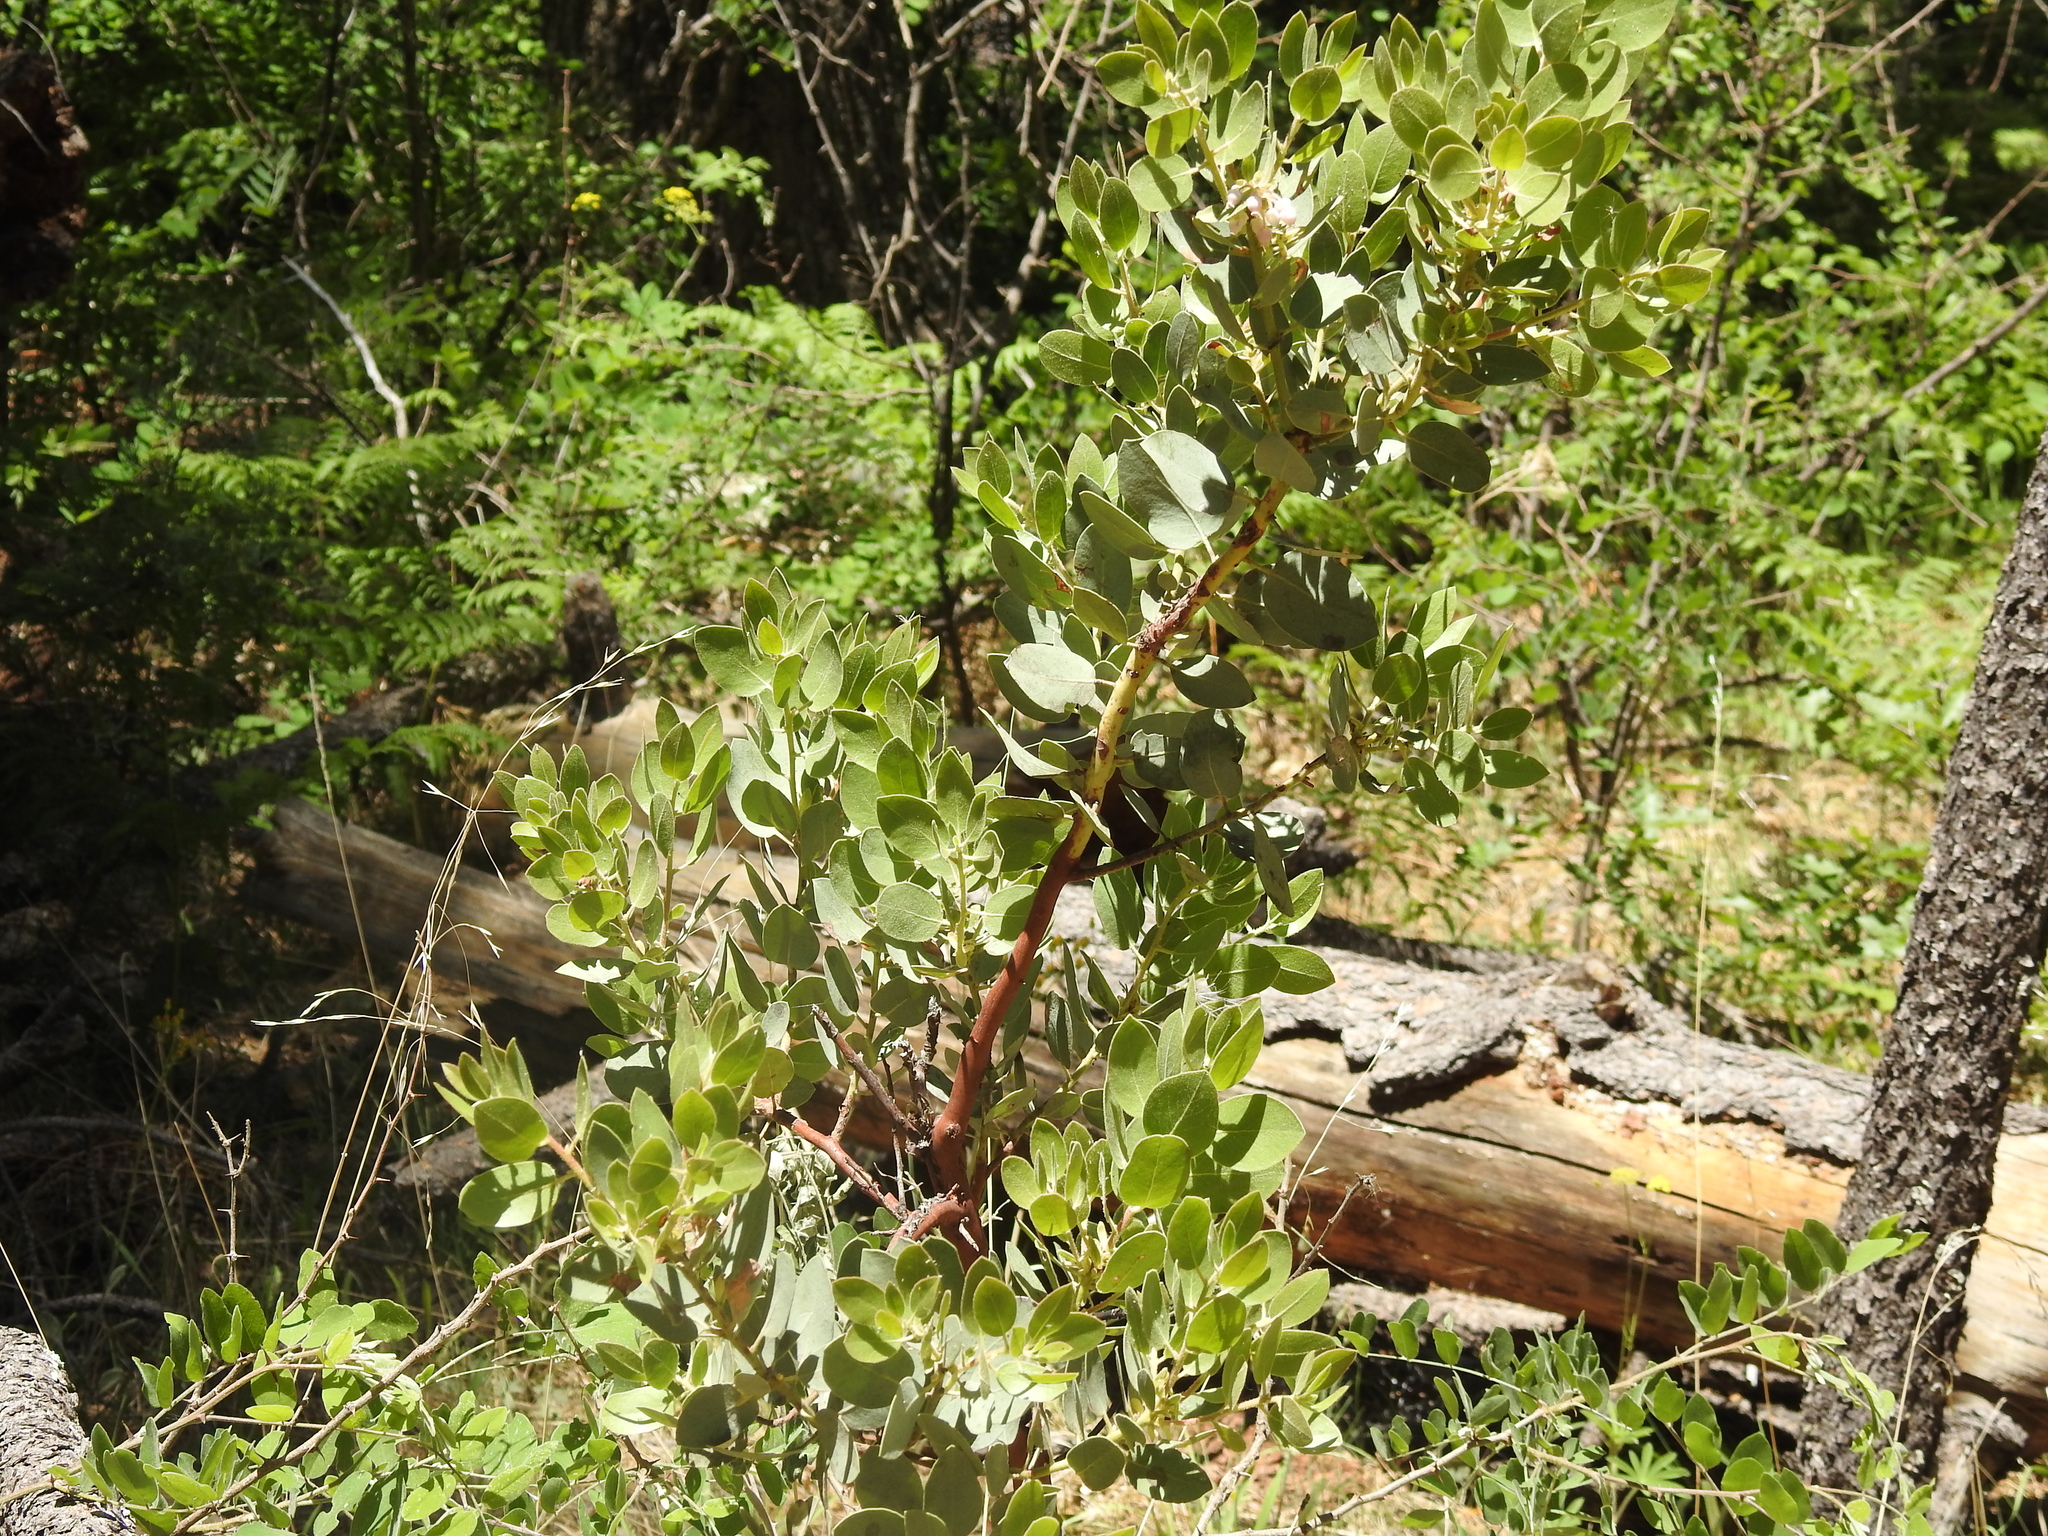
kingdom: Plantae
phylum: Tracheophyta
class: Magnoliopsida
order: Ericales
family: Ericaceae
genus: Arctostaphylos
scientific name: Arctostaphylos pringlei
